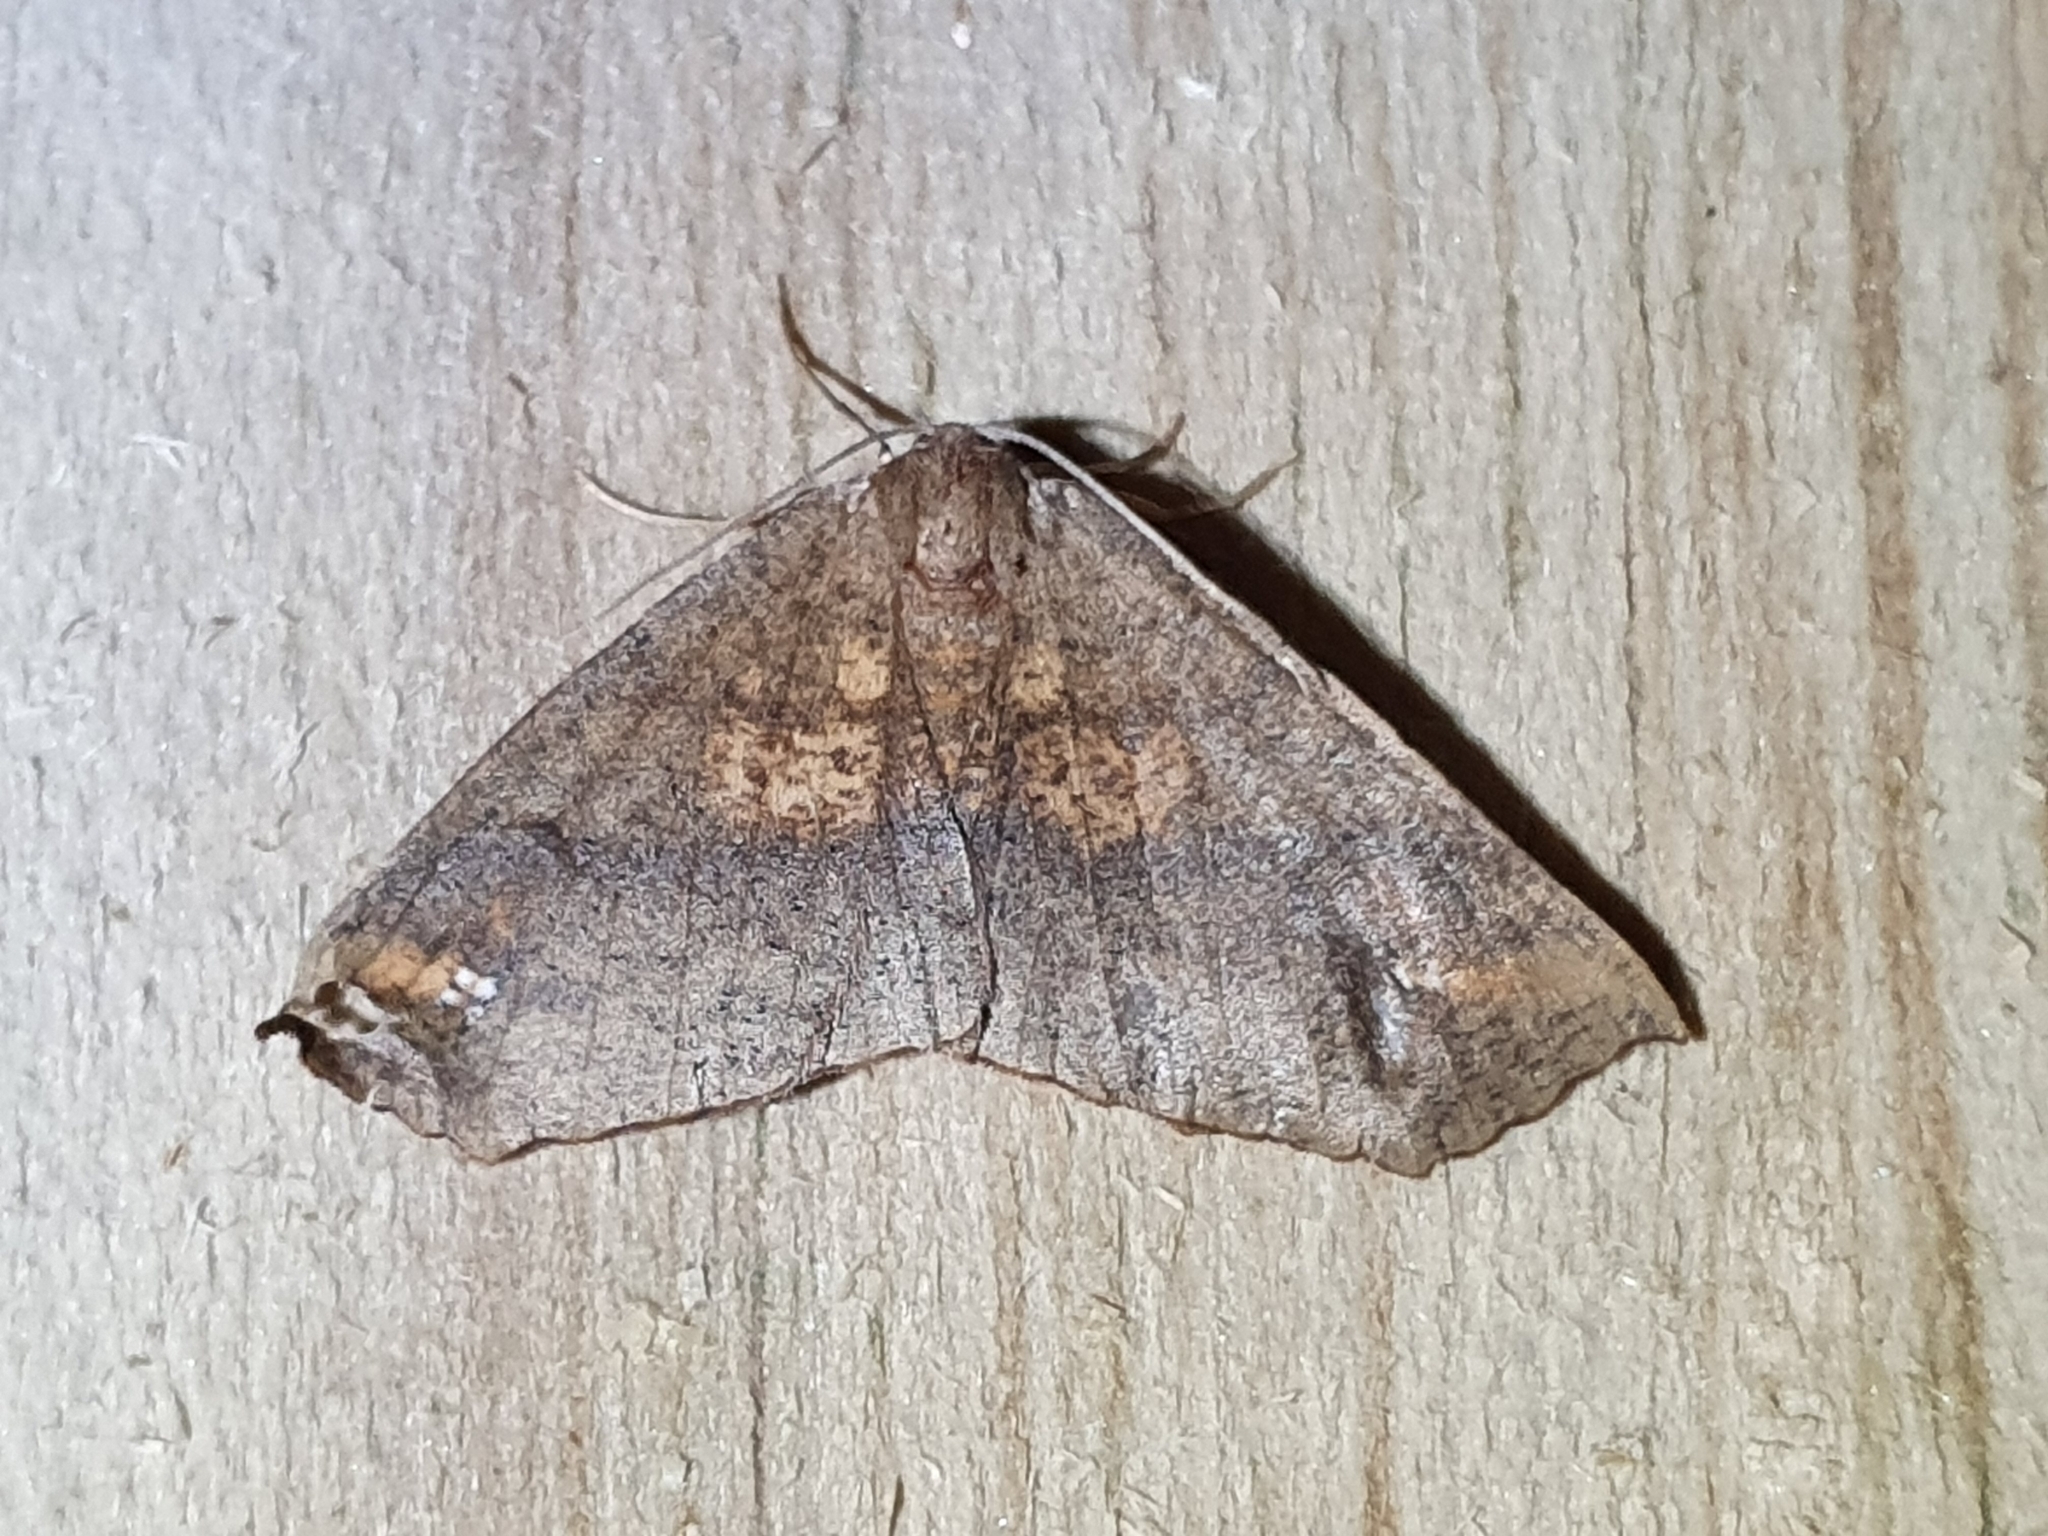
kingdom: Animalia
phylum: Arthropoda
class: Insecta
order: Lepidoptera
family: Geometridae
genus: Xyridacma
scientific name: Xyridacma ustaria
